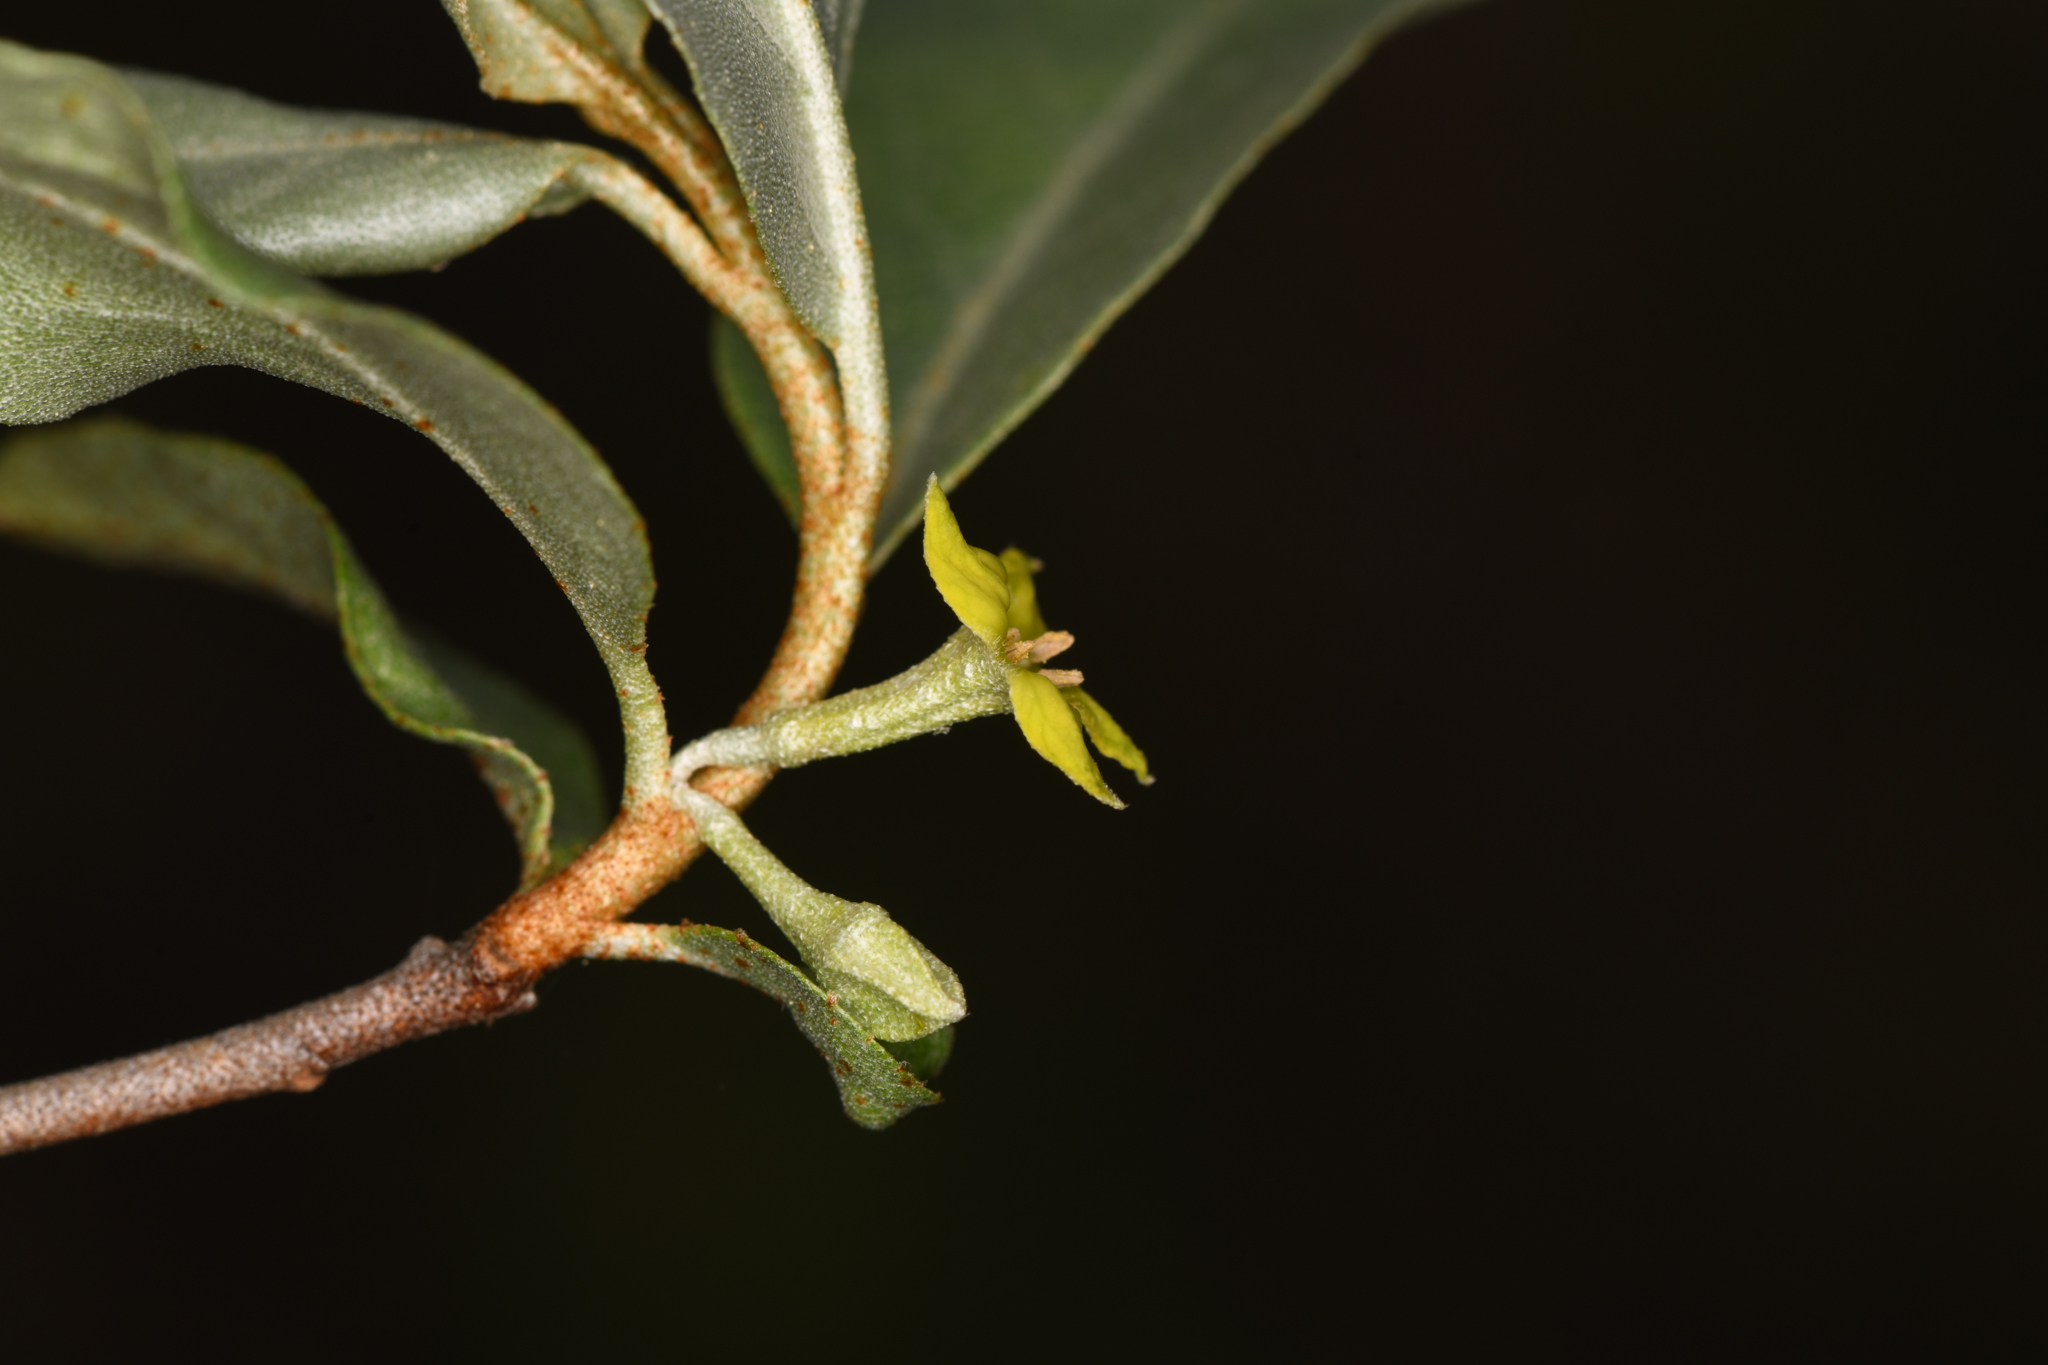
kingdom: Plantae
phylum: Tracheophyta
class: Magnoliopsida
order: Rosales
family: Elaeagnaceae
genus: Elaeagnus
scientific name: Elaeagnus commutata
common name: Silverberry
